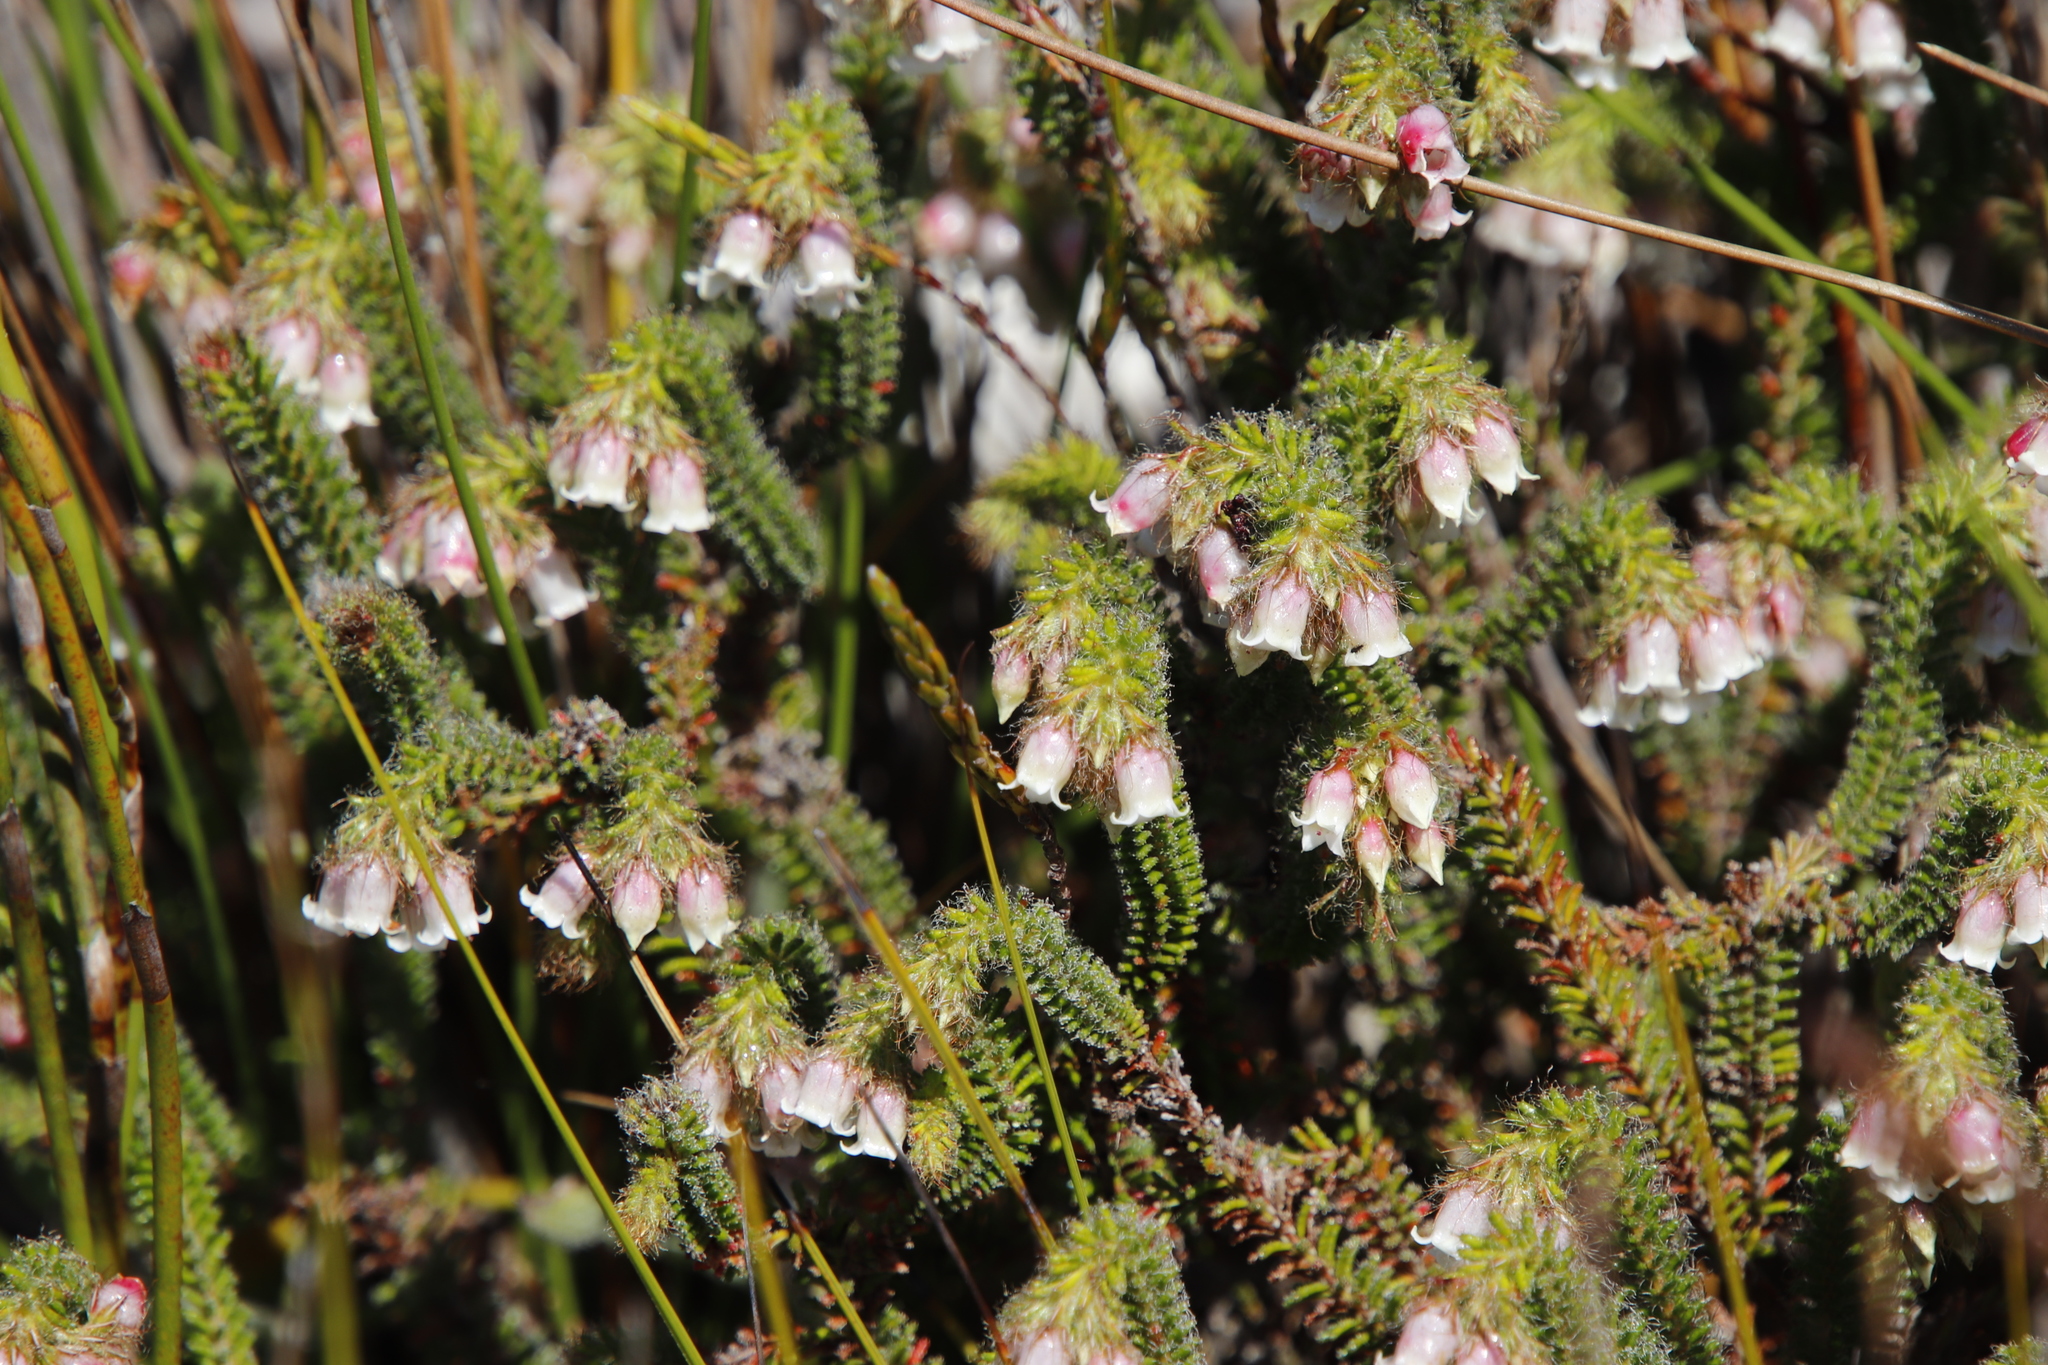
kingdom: Plantae
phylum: Tracheophyta
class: Magnoliopsida
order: Ericales
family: Ericaceae
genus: Erica
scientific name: Erica cygnea
